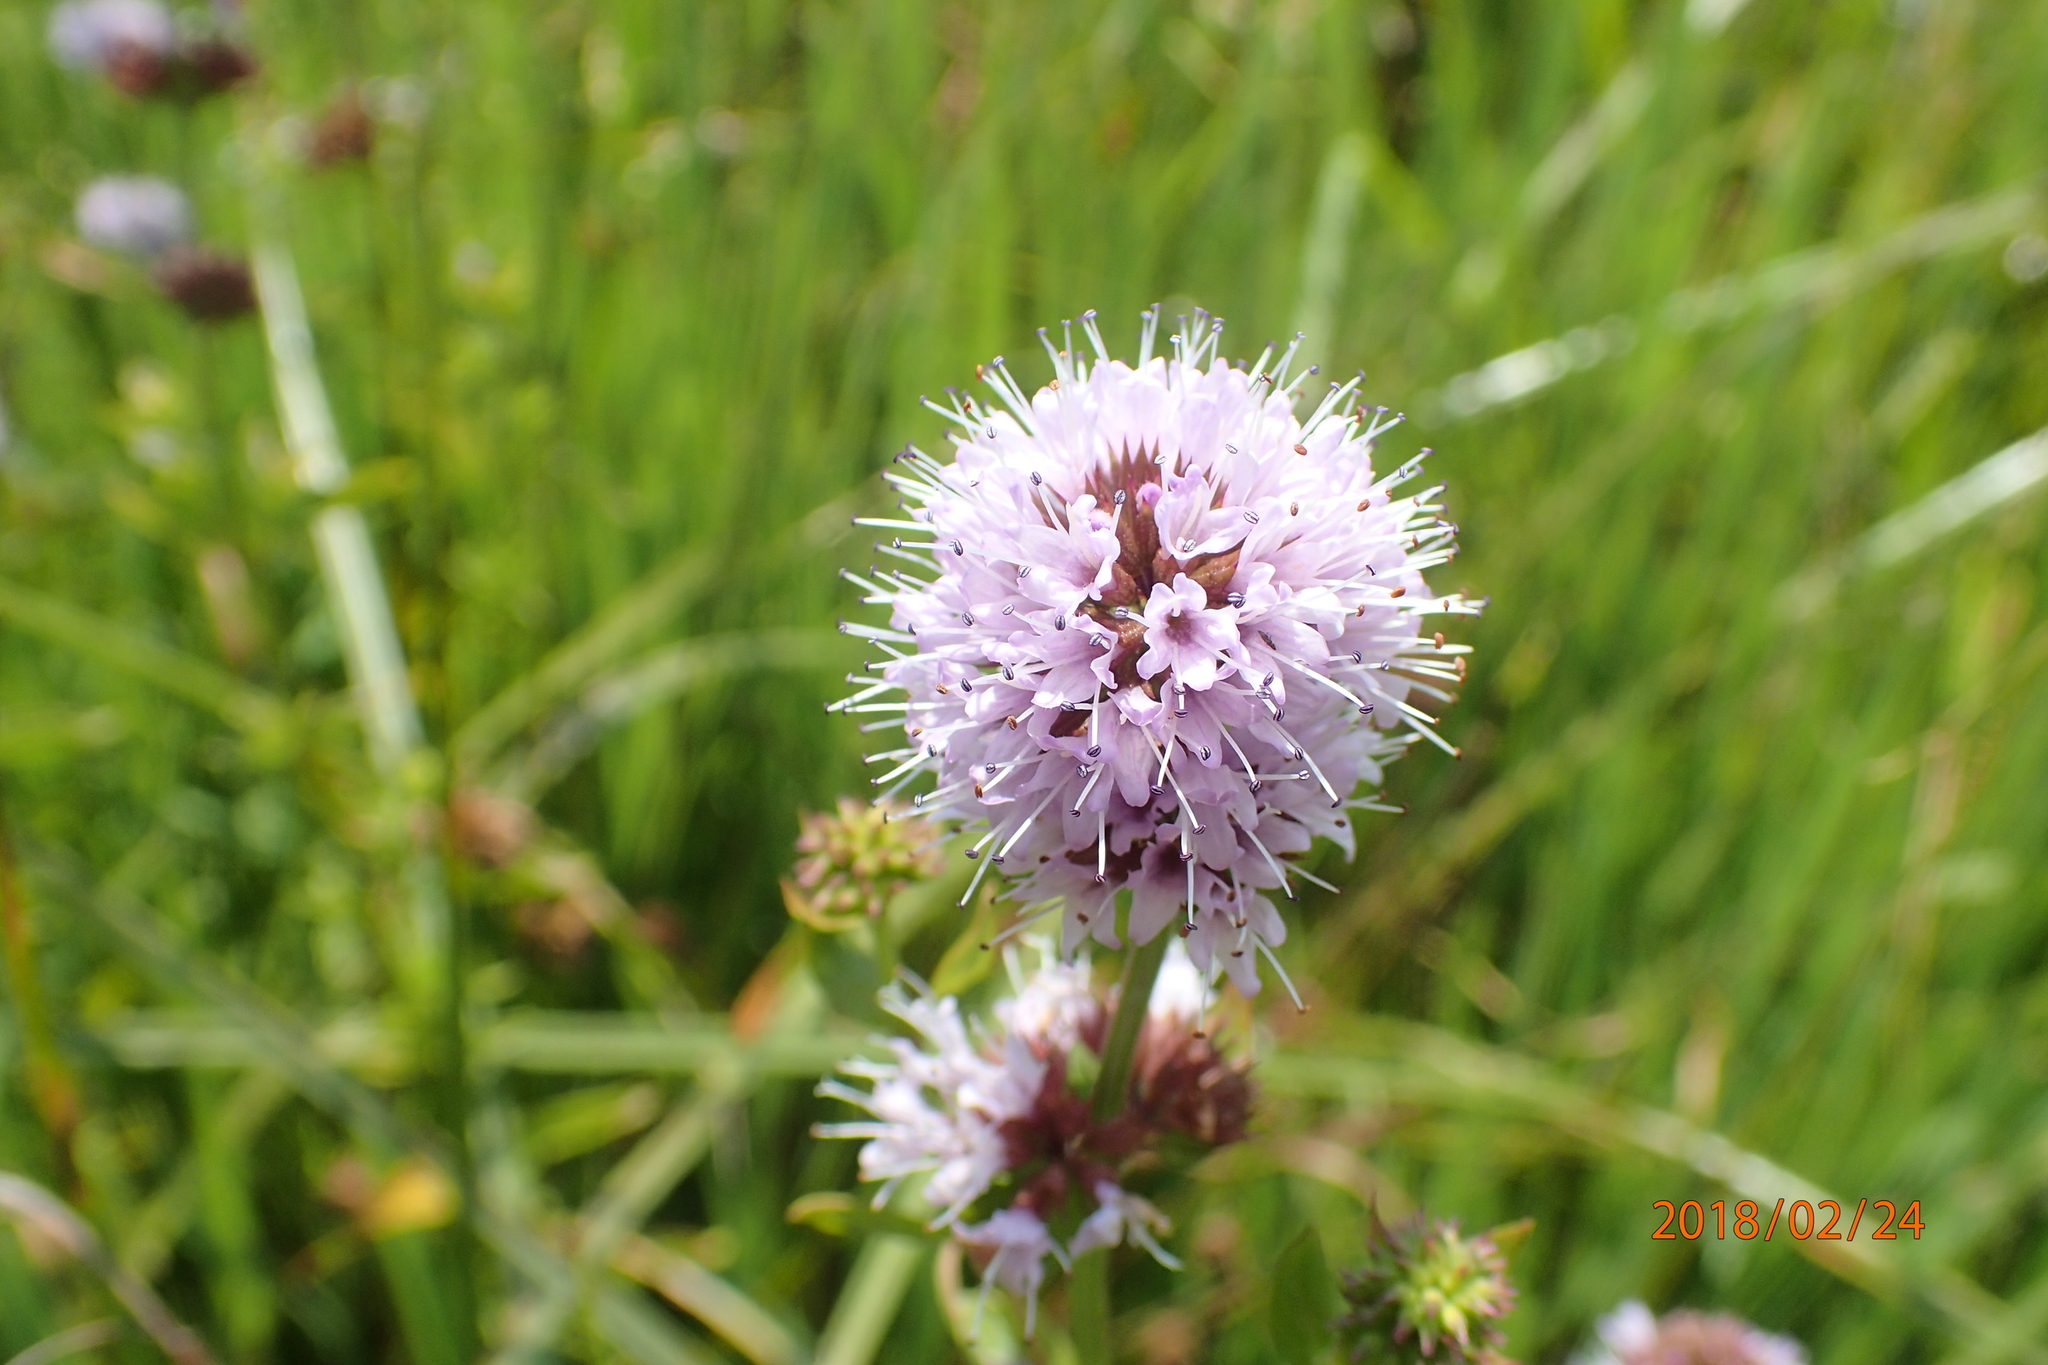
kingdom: Plantae
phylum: Tracheophyta
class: Magnoliopsida
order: Lamiales
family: Lamiaceae
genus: Mentha
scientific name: Mentha aquatica
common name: Water mint
